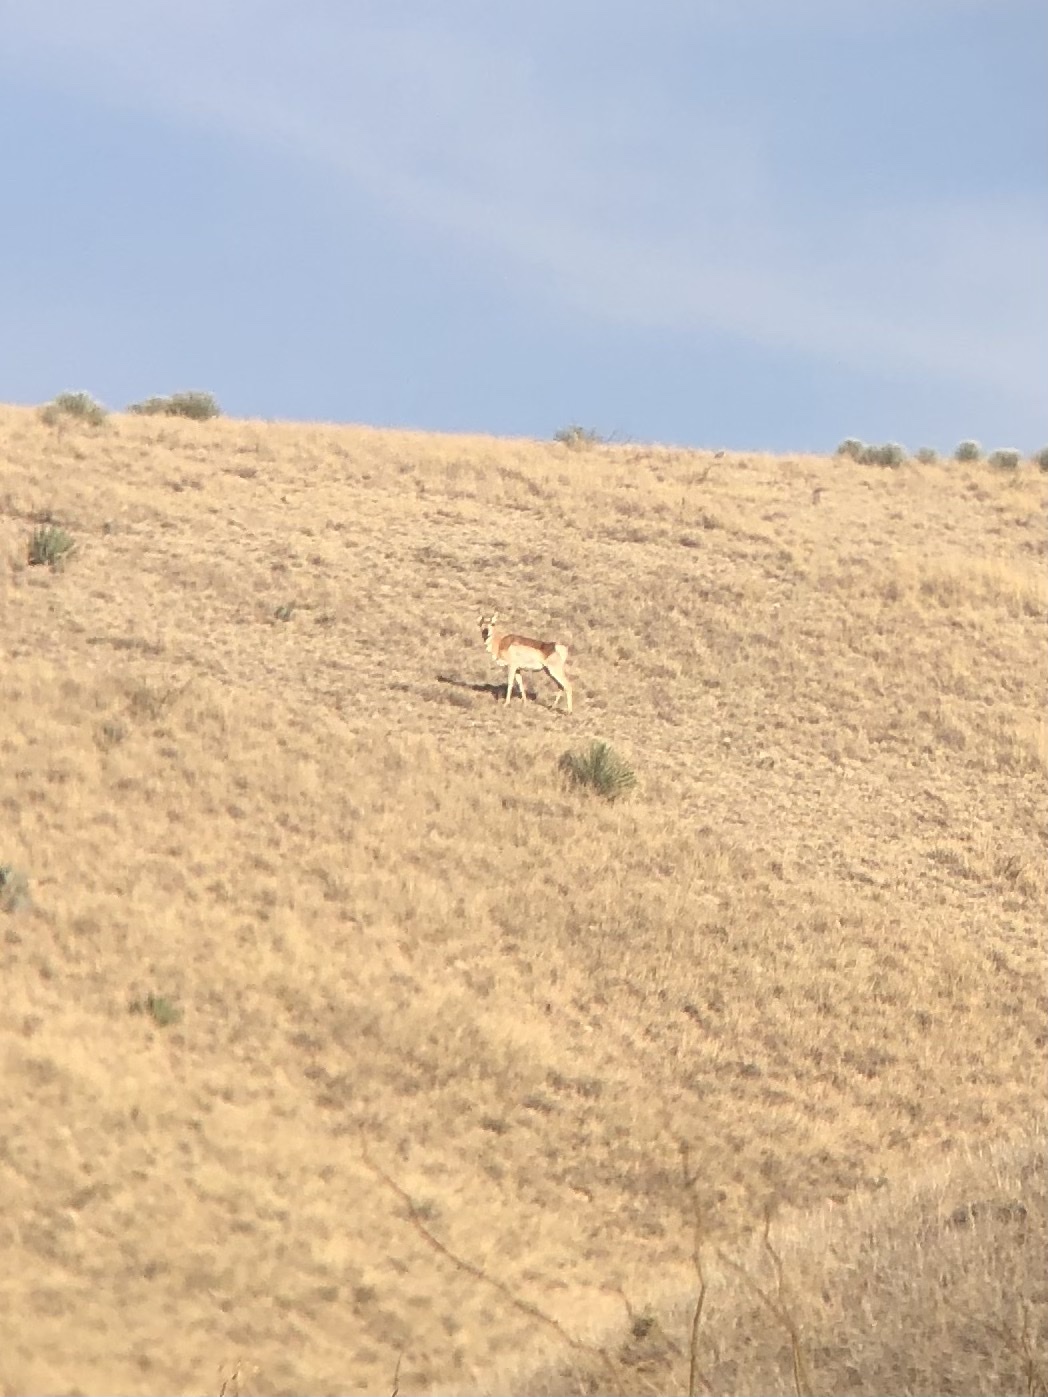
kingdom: Animalia
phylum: Chordata
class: Mammalia
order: Artiodactyla
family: Antilocapridae
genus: Antilocapra
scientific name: Antilocapra americana
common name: Pronghorn
